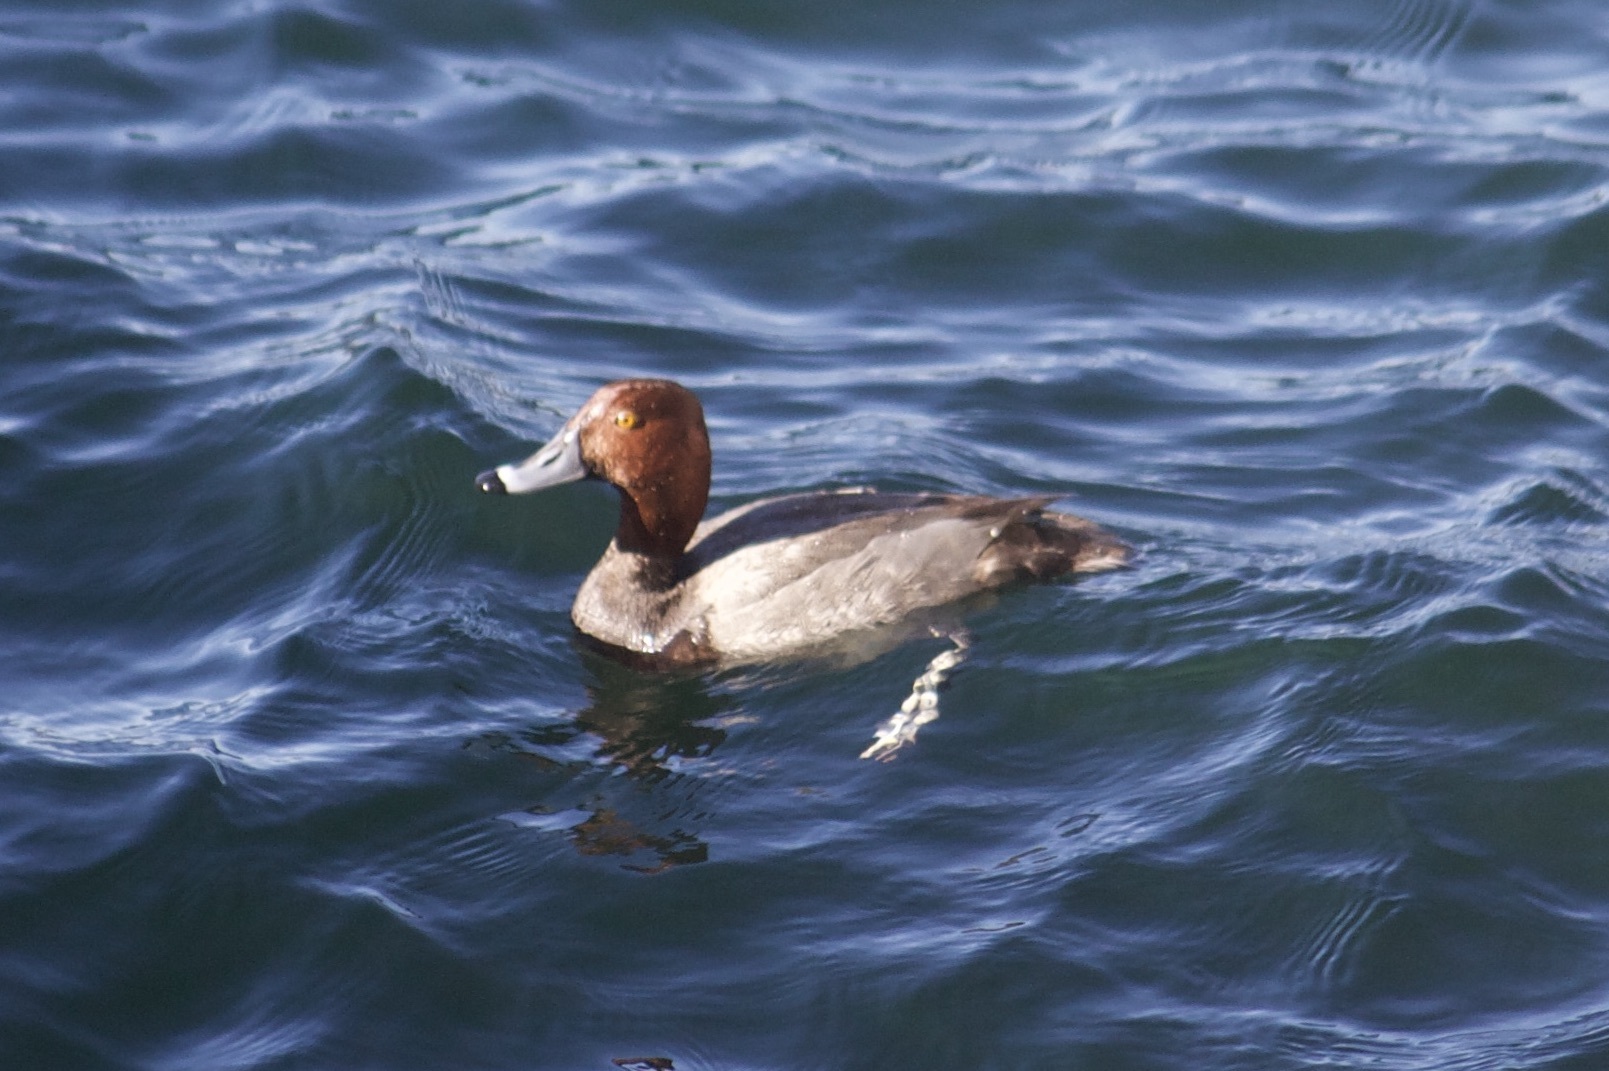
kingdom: Animalia
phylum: Chordata
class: Aves
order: Anseriformes
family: Anatidae
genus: Aythya
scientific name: Aythya americana
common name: Redhead
